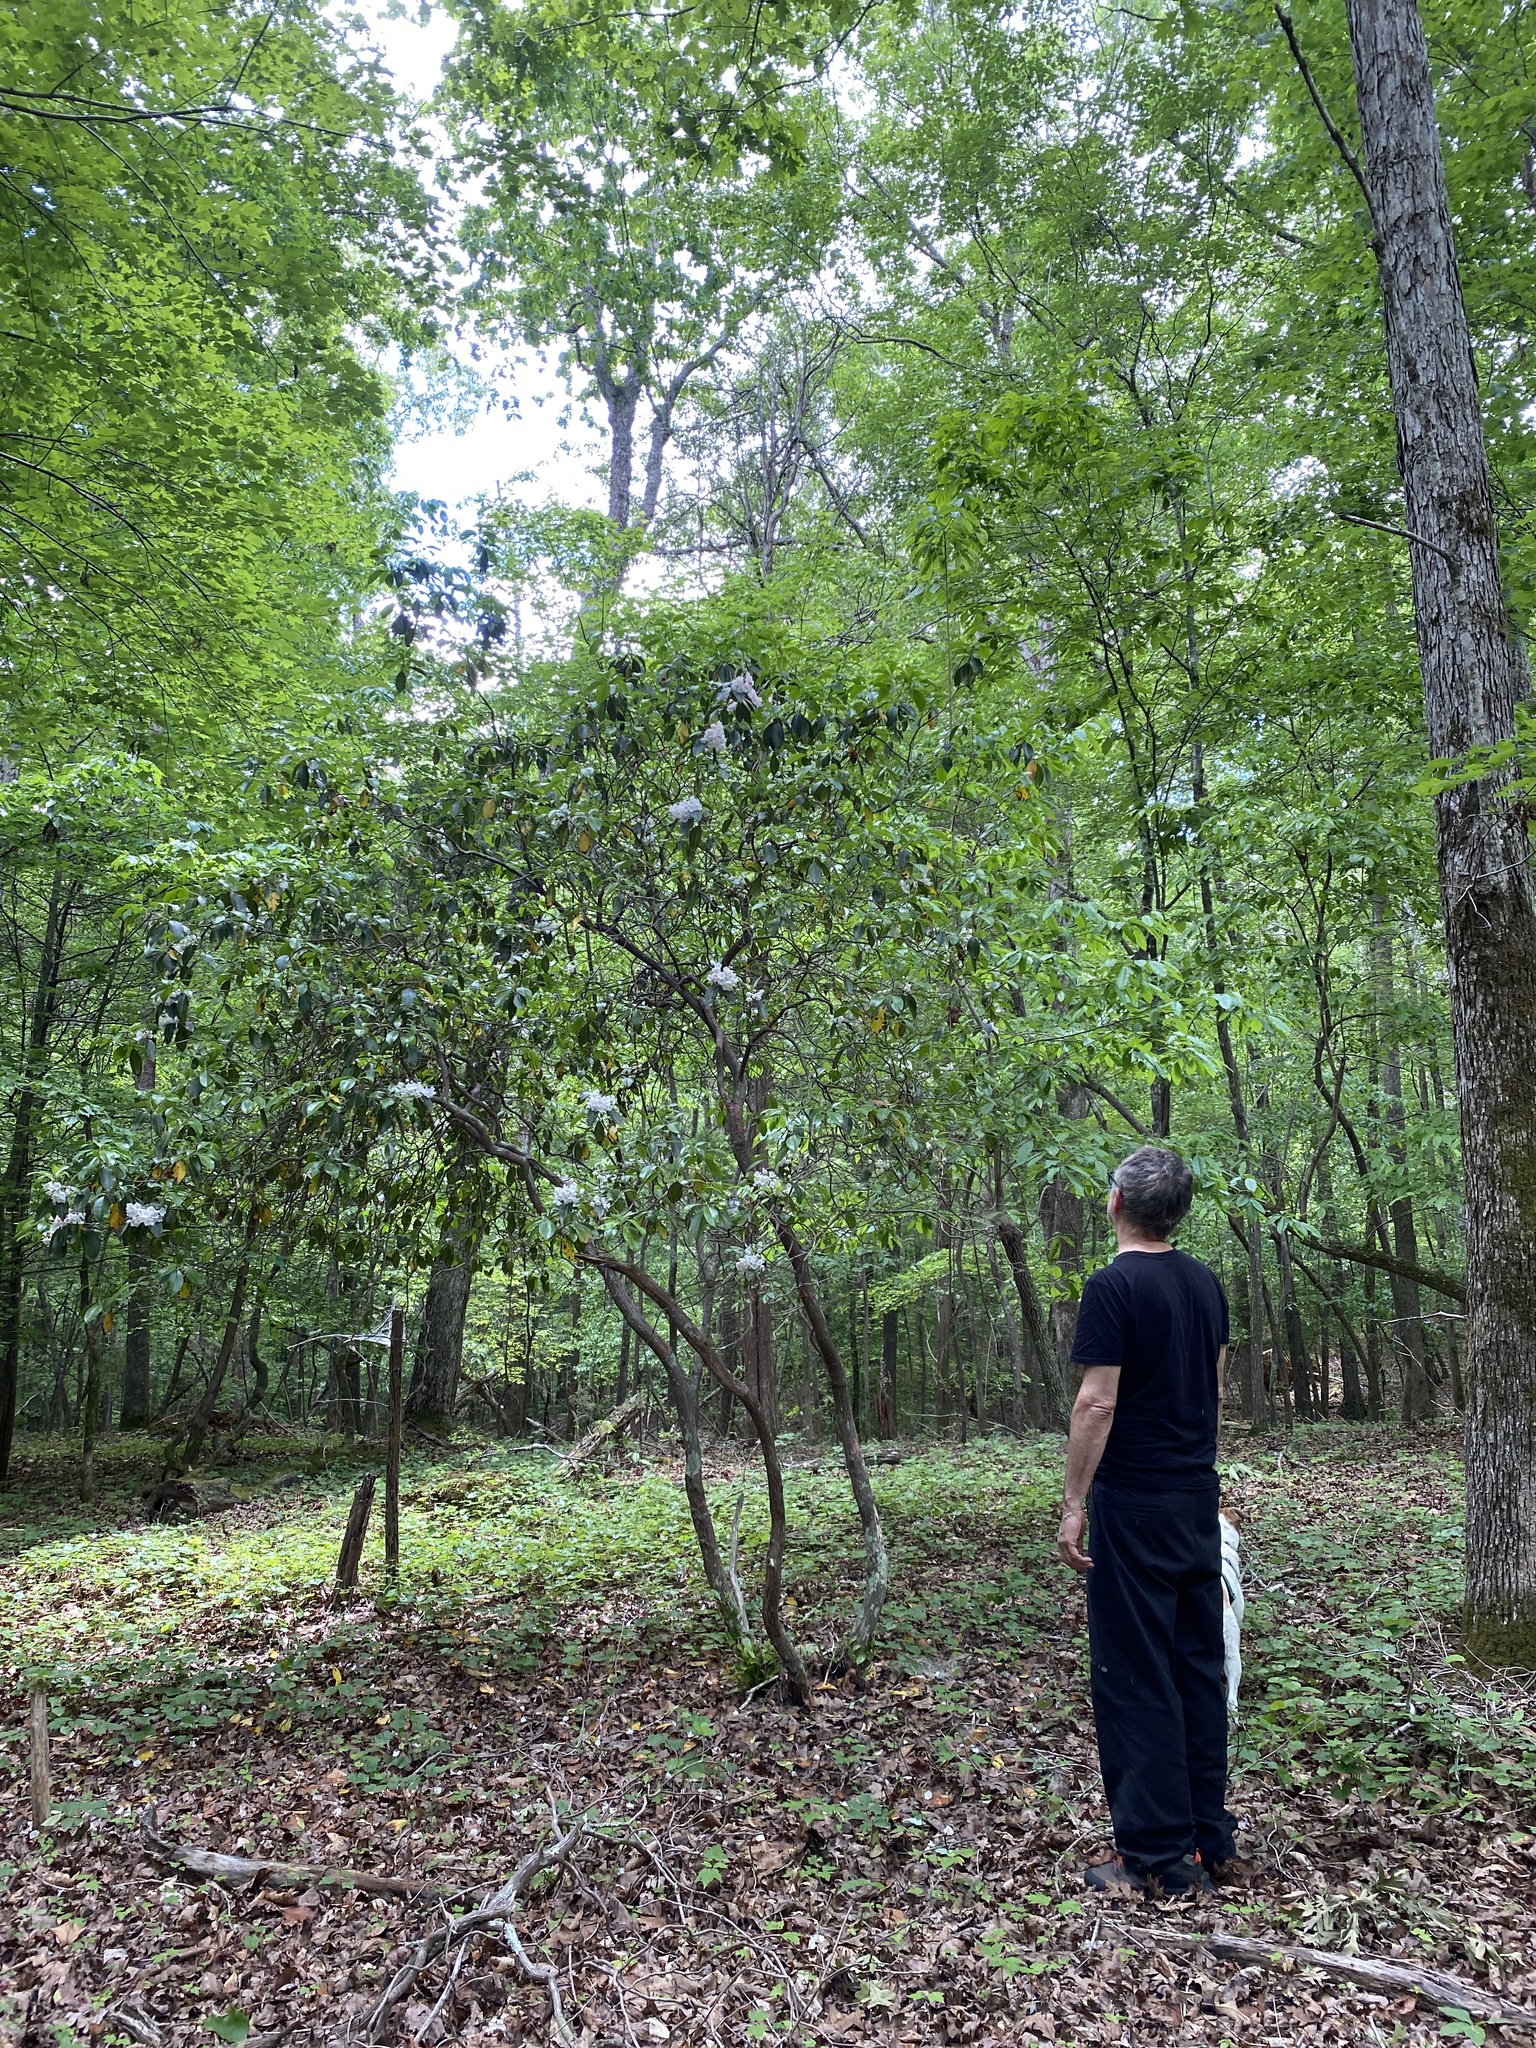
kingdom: Plantae
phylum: Tracheophyta
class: Magnoliopsida
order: Ericales
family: Ericaceae
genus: Kalmia
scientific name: Kalmia latifolia
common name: Mountain-laurel
